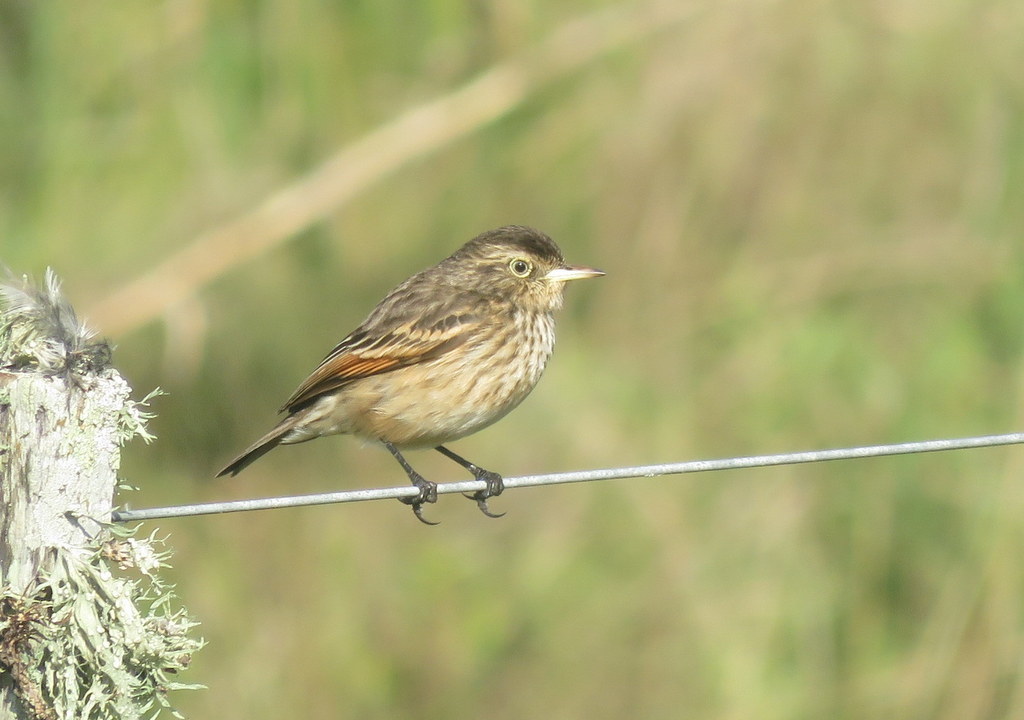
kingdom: Animalia
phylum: Chordata
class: Aves
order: Passeriformes
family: Tyrannidae
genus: Hymenops
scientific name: Hymenops perspicillatus
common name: Spectacled tyrant
